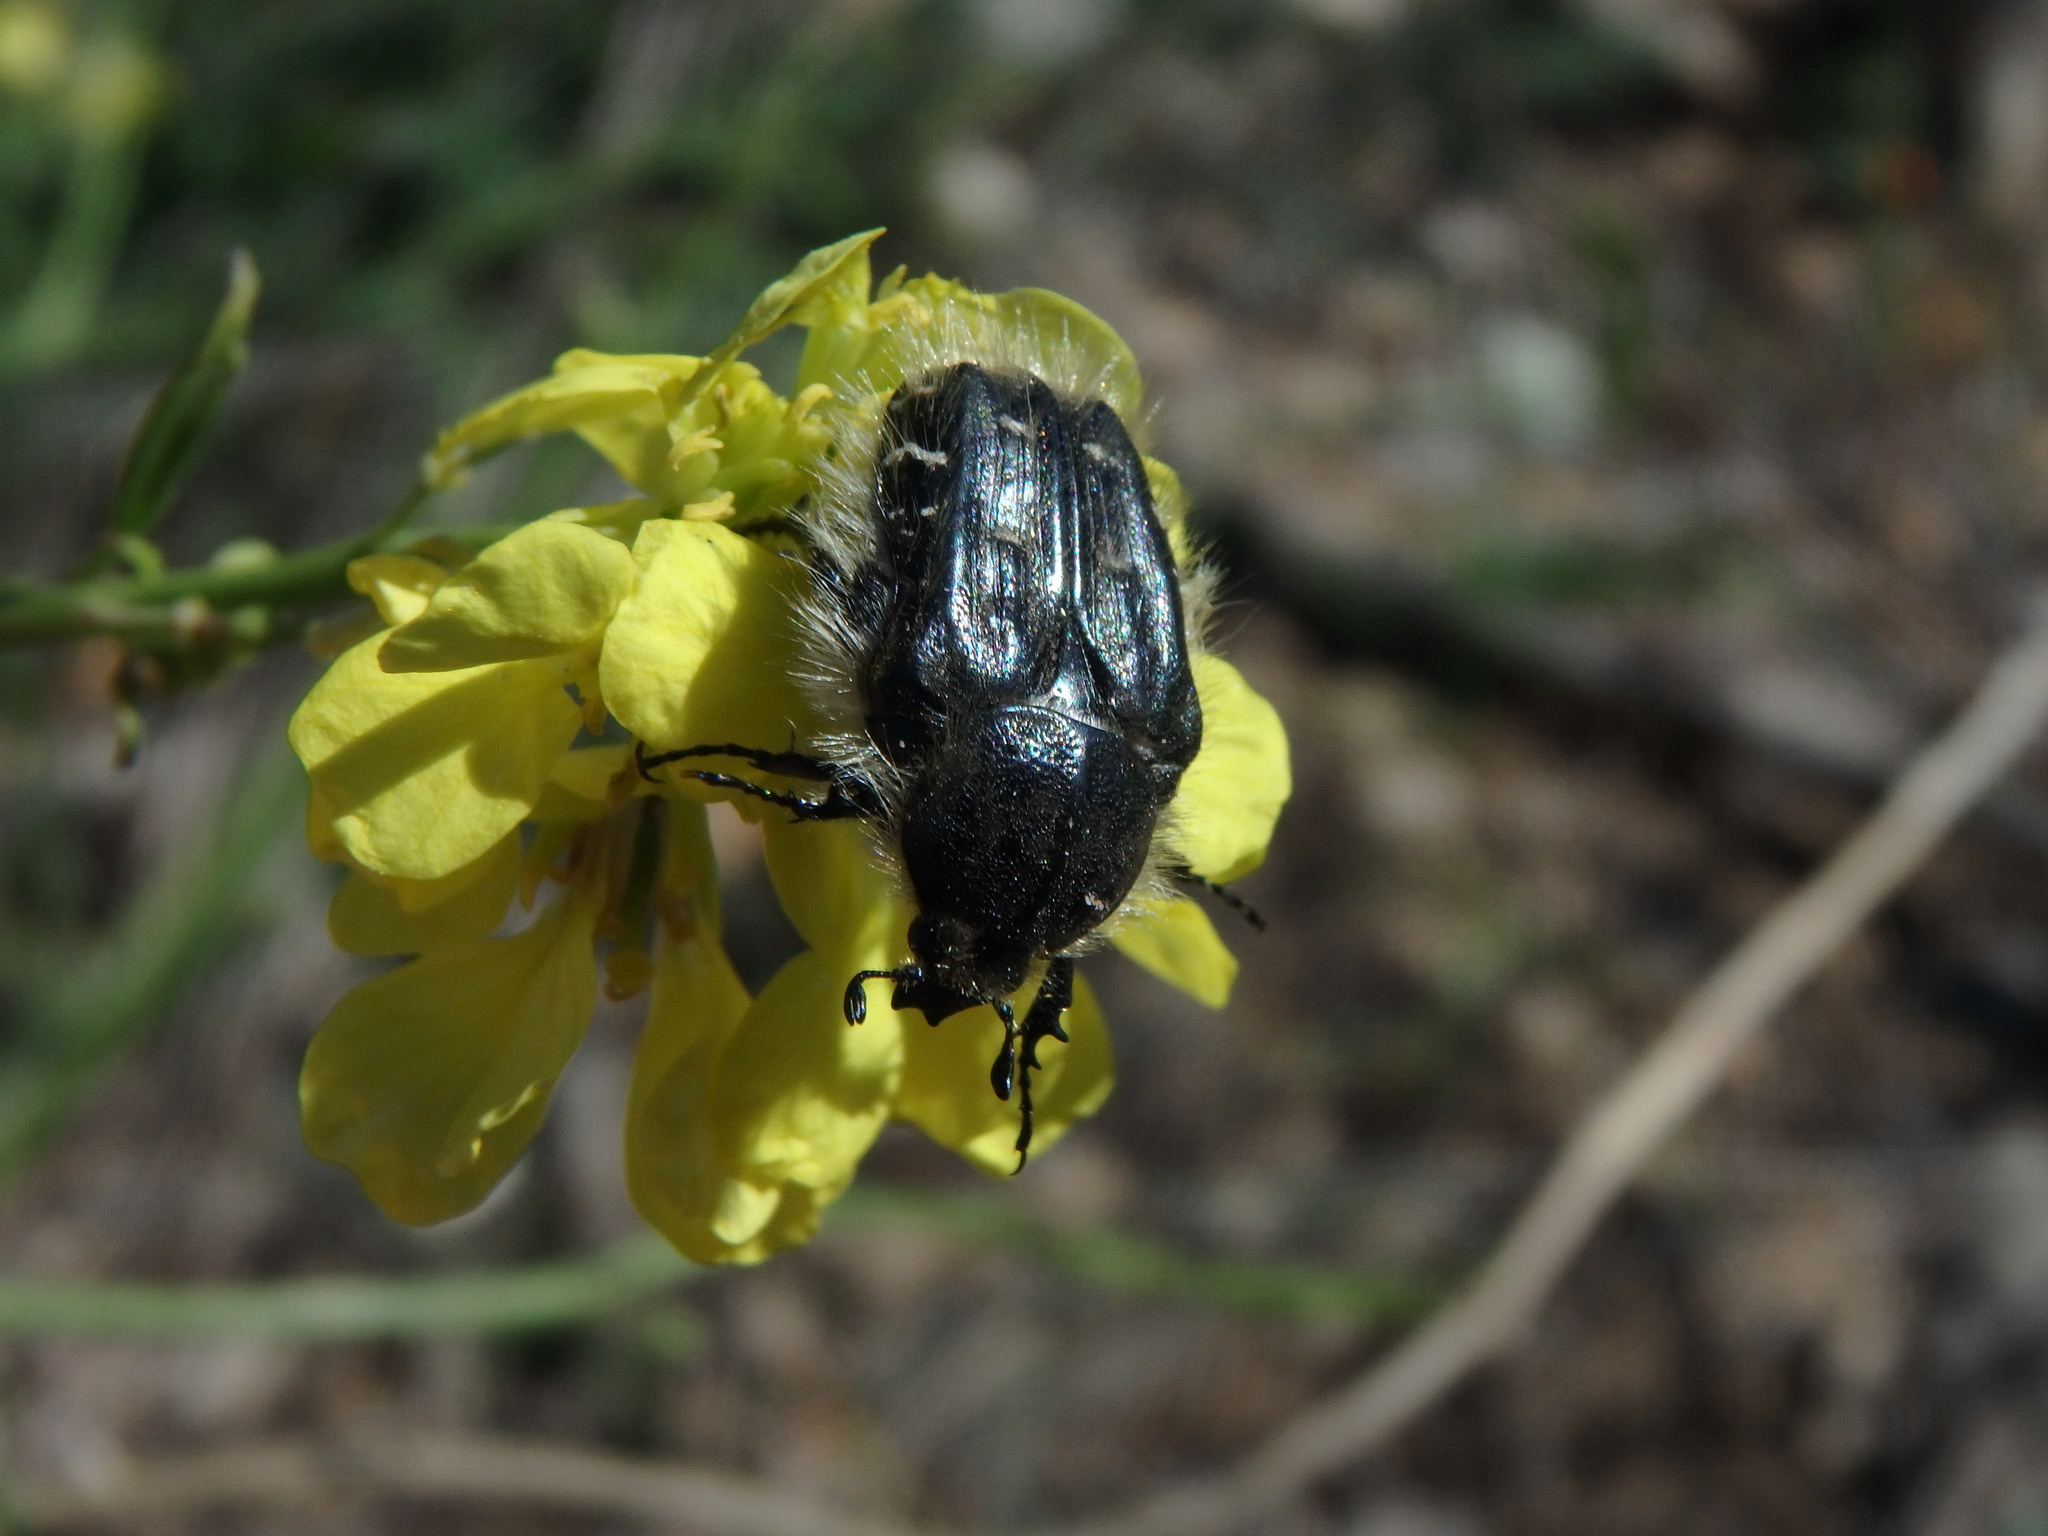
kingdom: Animalia
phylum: Arthropoda
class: Insecta
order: Coleoptera
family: Scarabaeidae
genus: Tropinota
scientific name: Tropinota squalida
